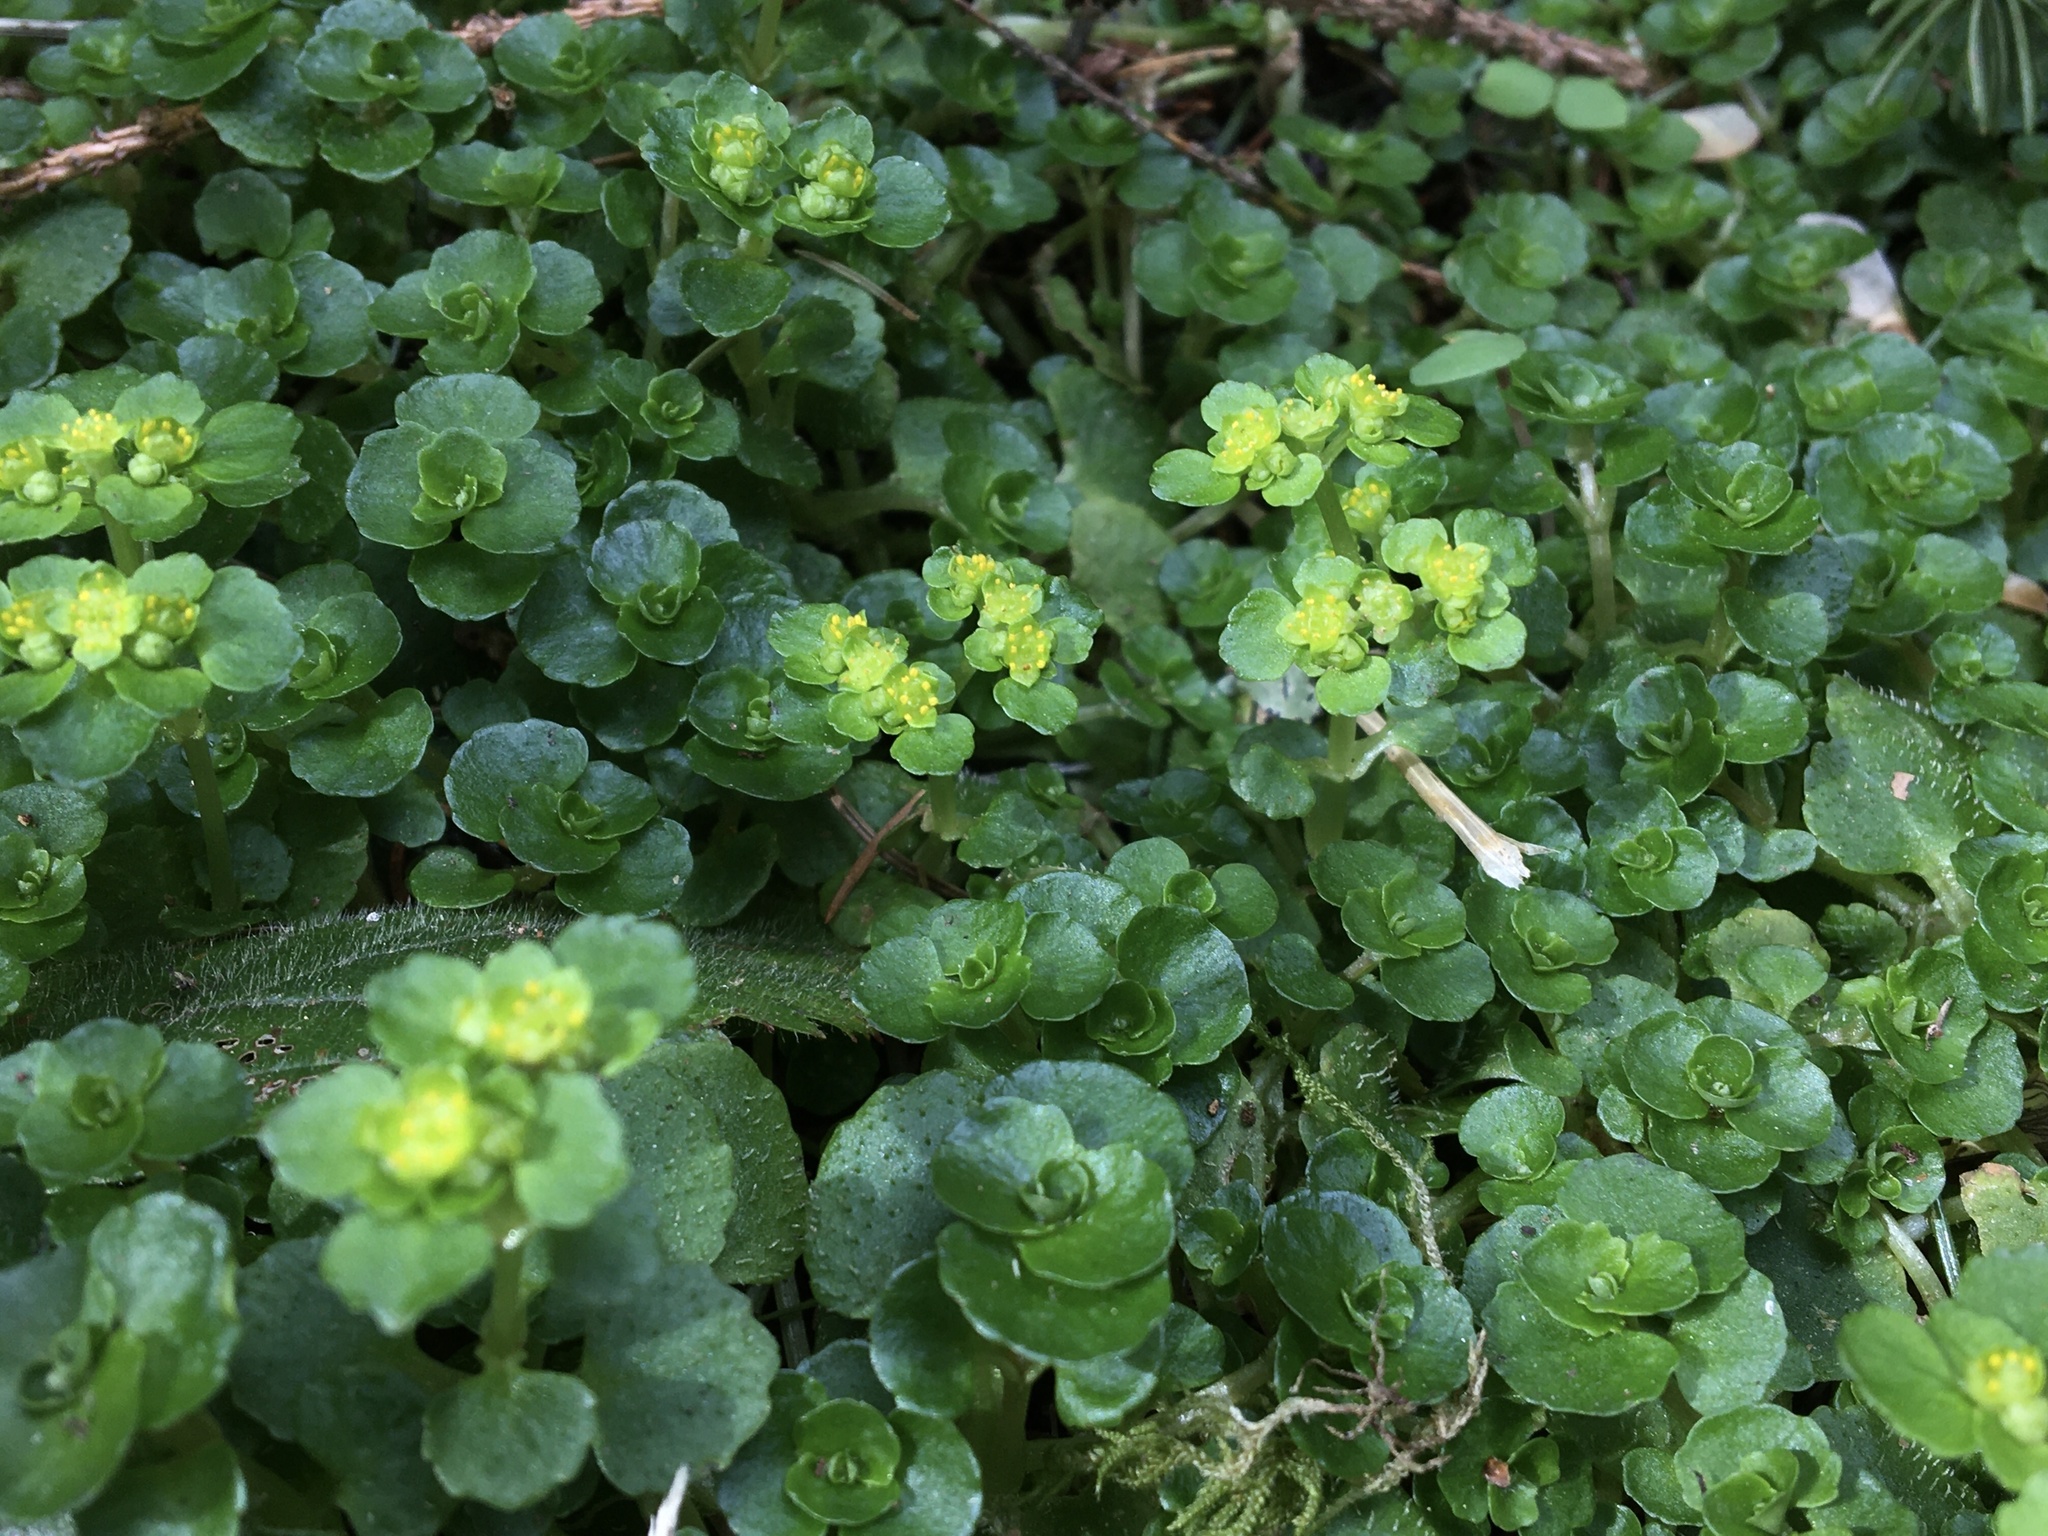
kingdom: Plantae
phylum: Tracheophyta
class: Magnoliopsida
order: Saxifragales
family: Saxifragaceae
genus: Chrysosplenium
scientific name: Chrysosplenium oppositifolium
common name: Opposite-leaved golden-saxifrage
